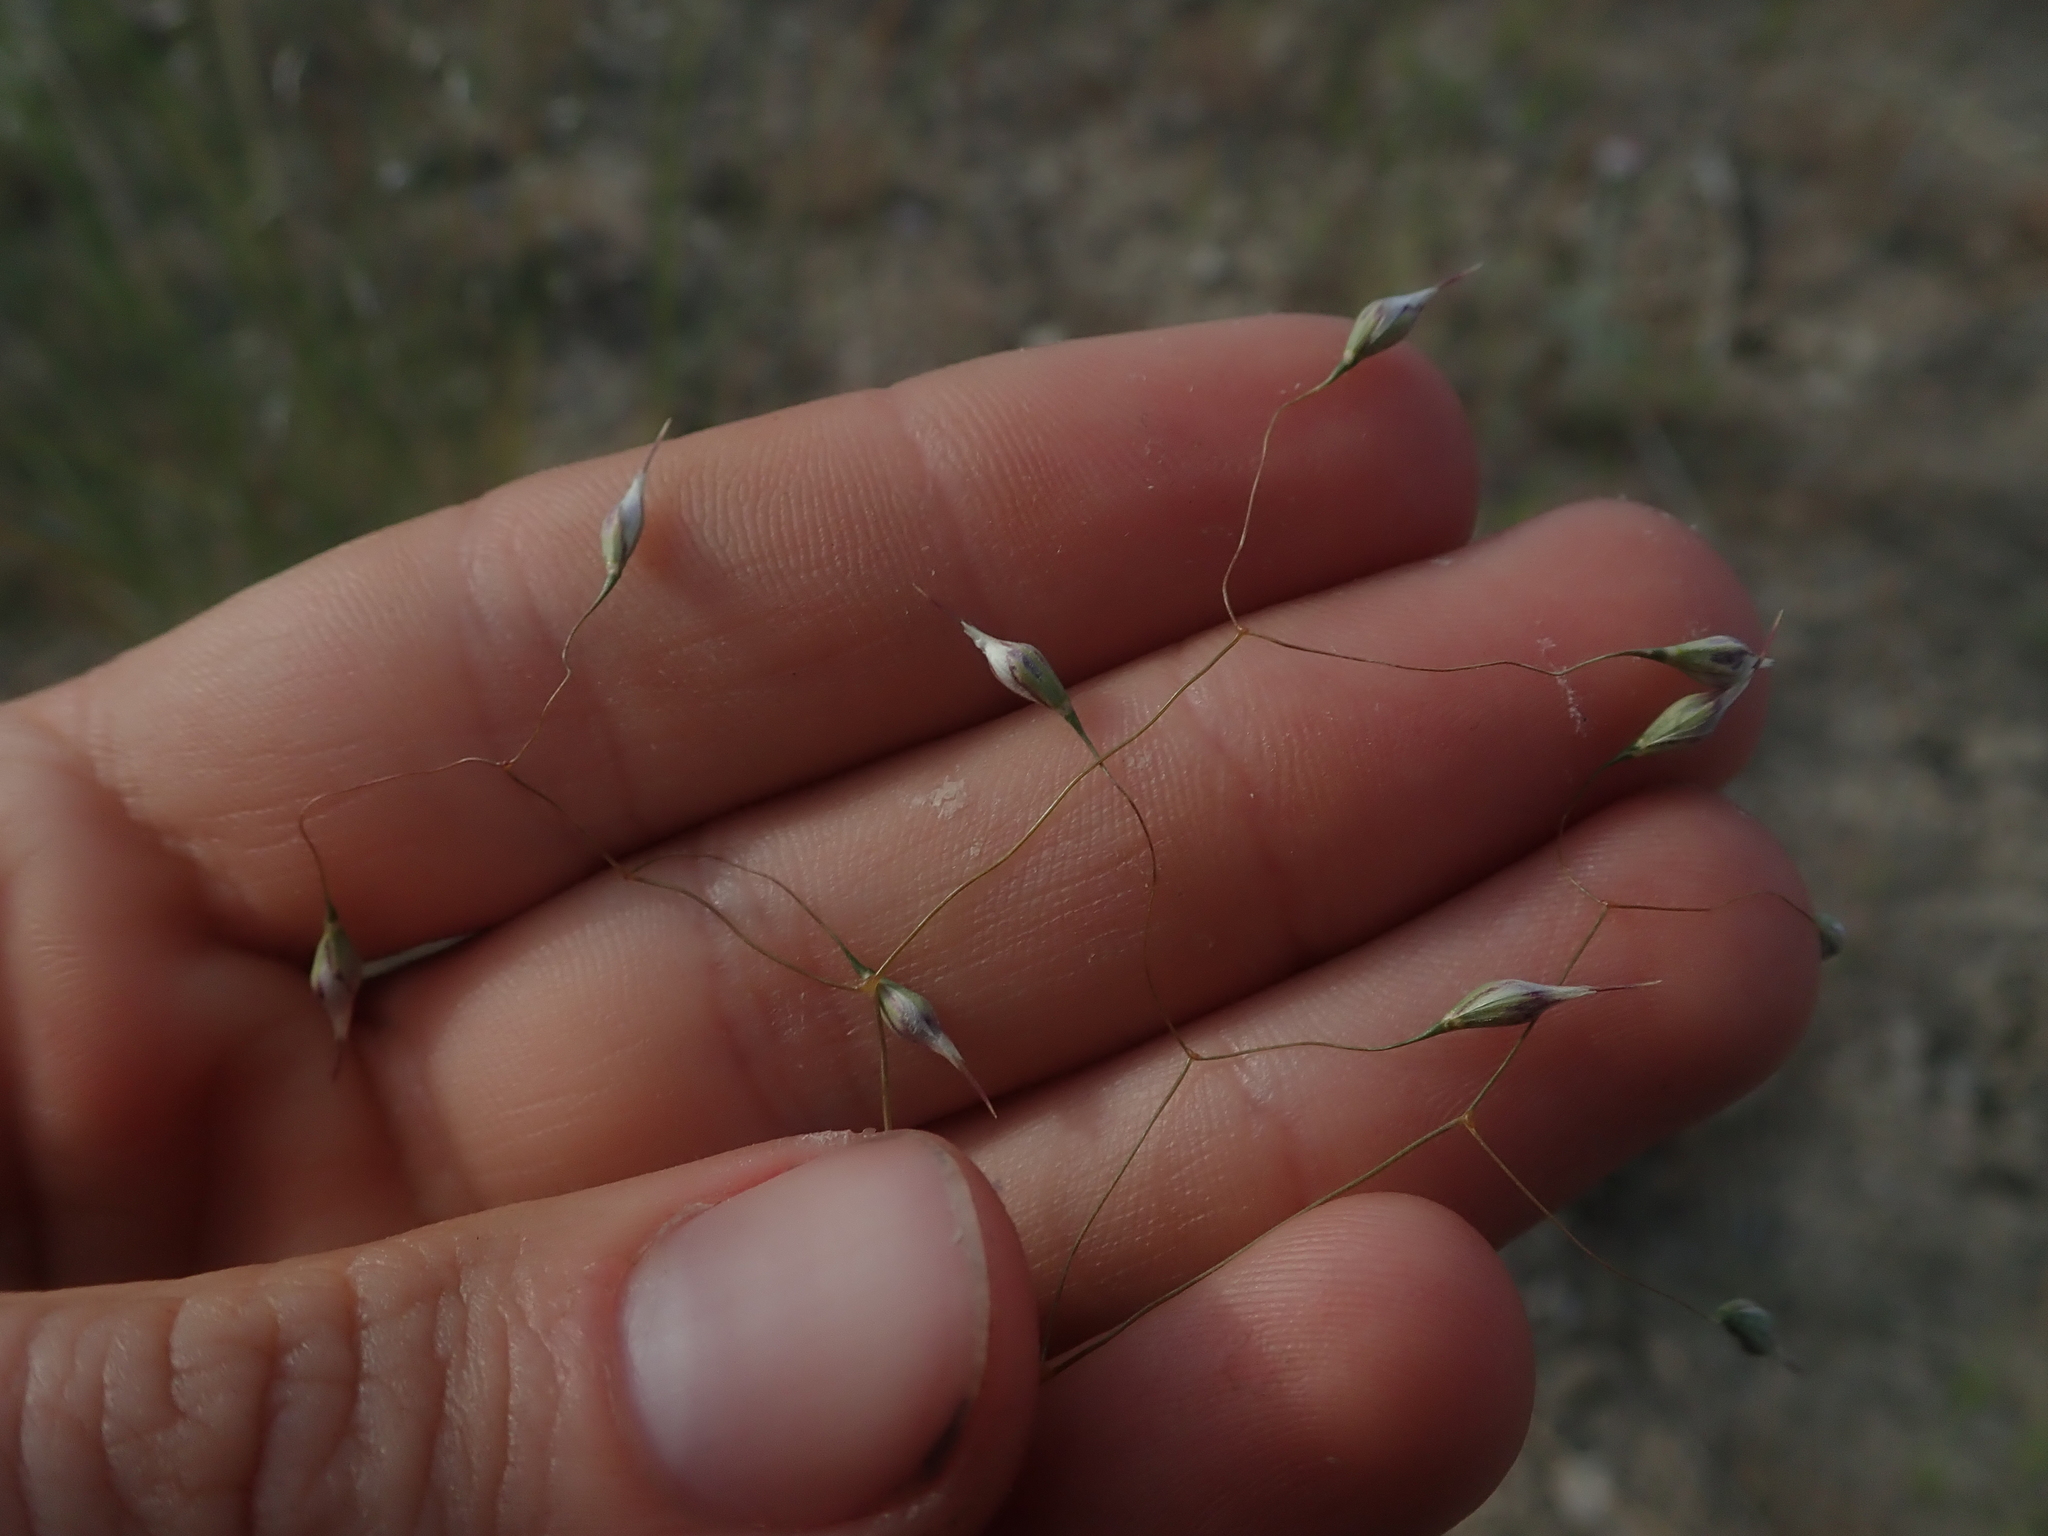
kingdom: Plantae
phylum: Tracheophyta
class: Liliopsida
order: Poales
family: Poaceae
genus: Eriocoma
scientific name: Eriocoma hymenoides
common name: Indian mountain ricegrass
